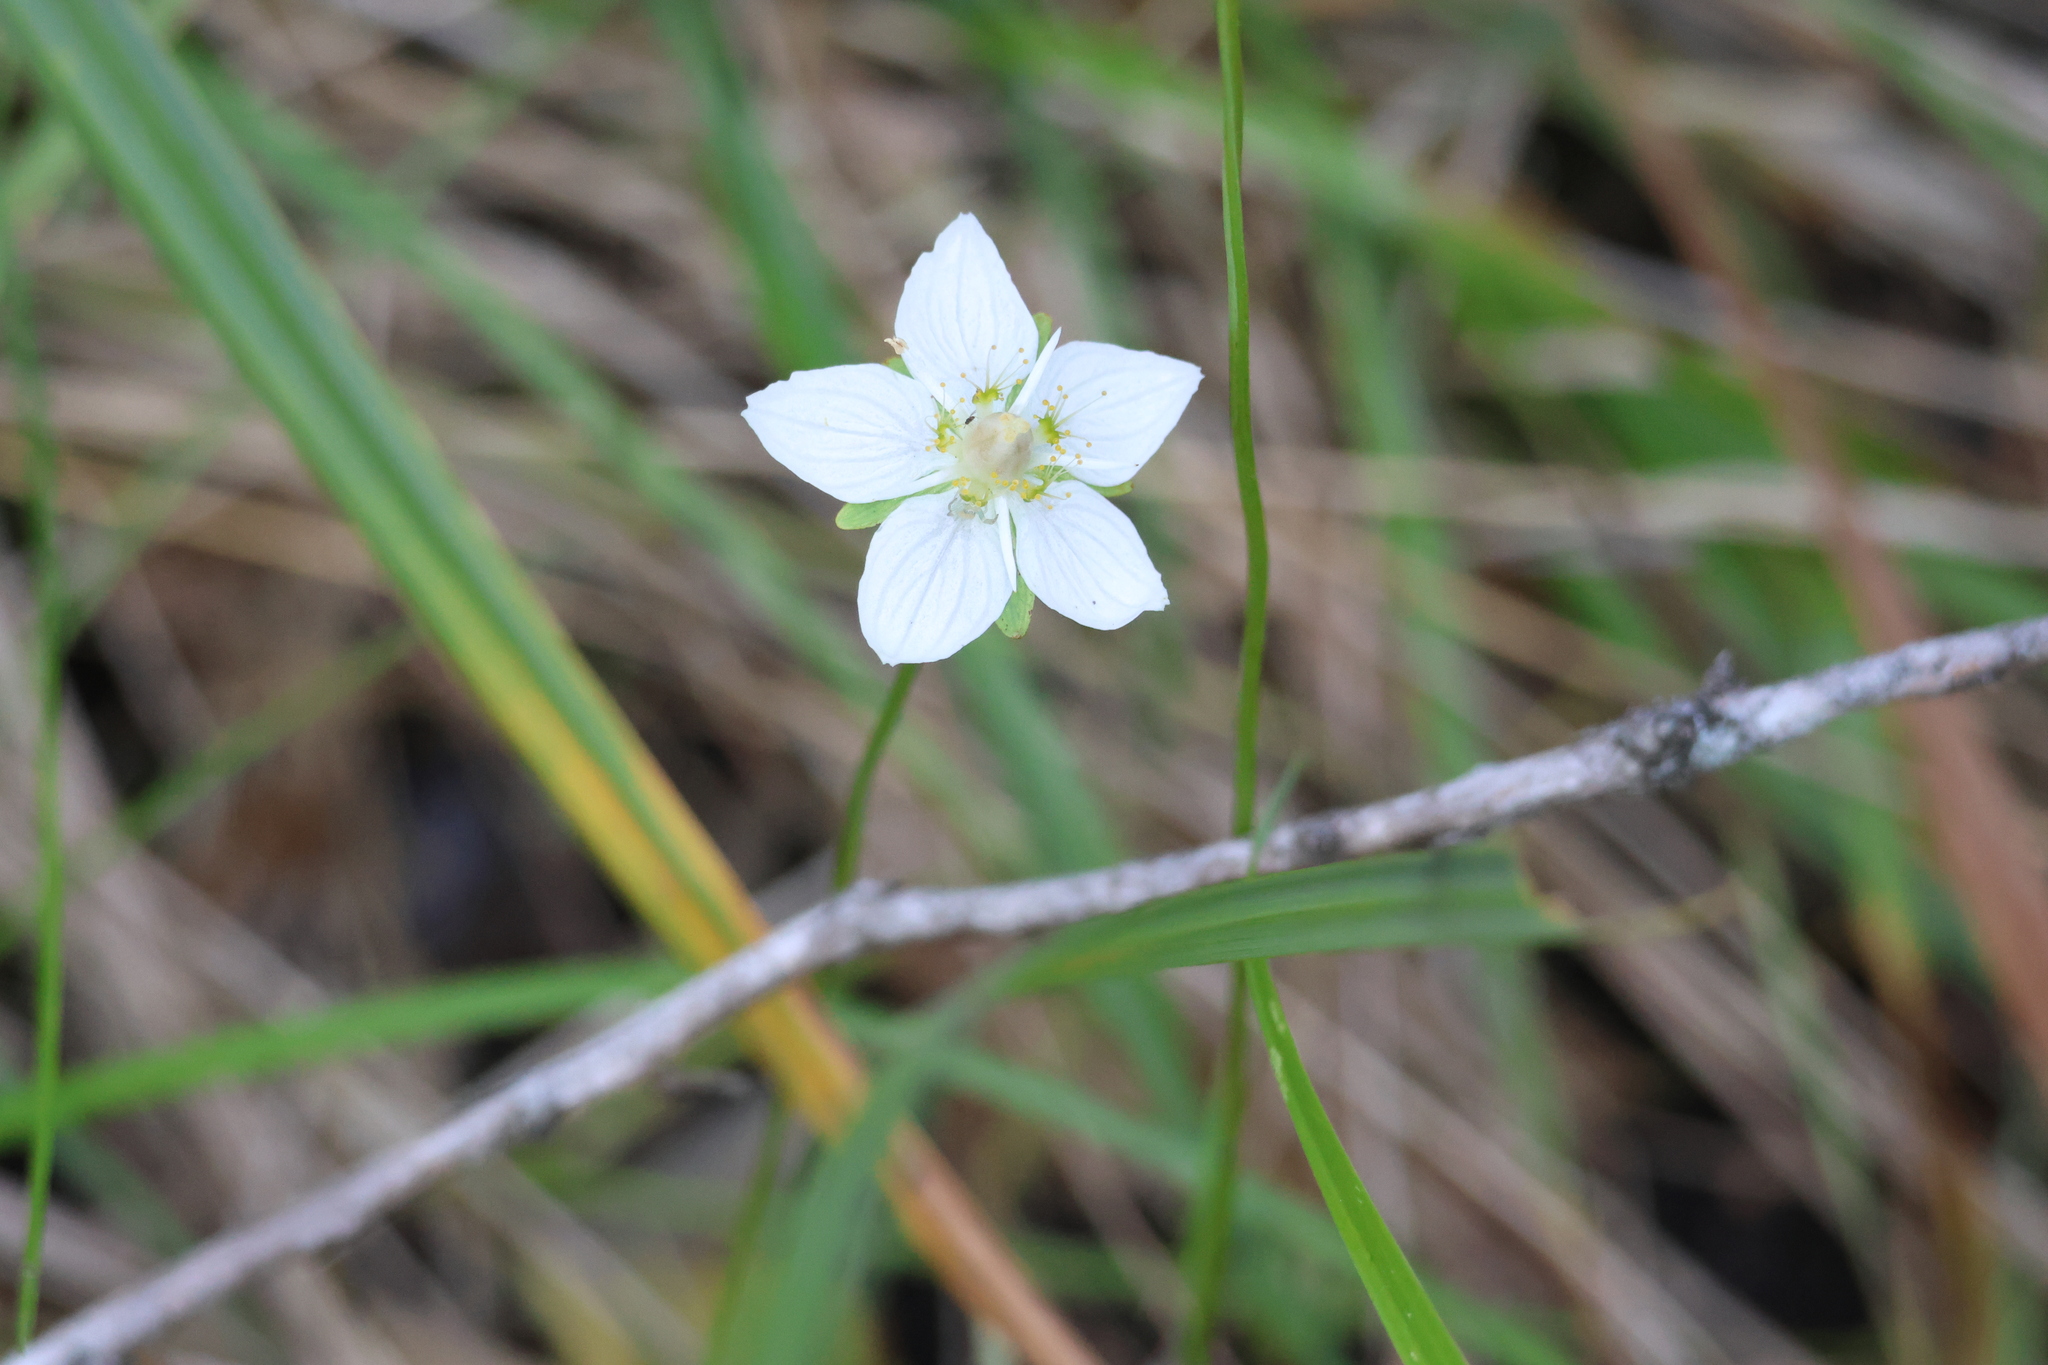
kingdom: Plantae
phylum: Tracheophyta
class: Magnoliopsida
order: Celastrales
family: Parnassiaceae
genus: Parnassia
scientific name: Parnassia palustris
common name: Grass-of-parnassus
